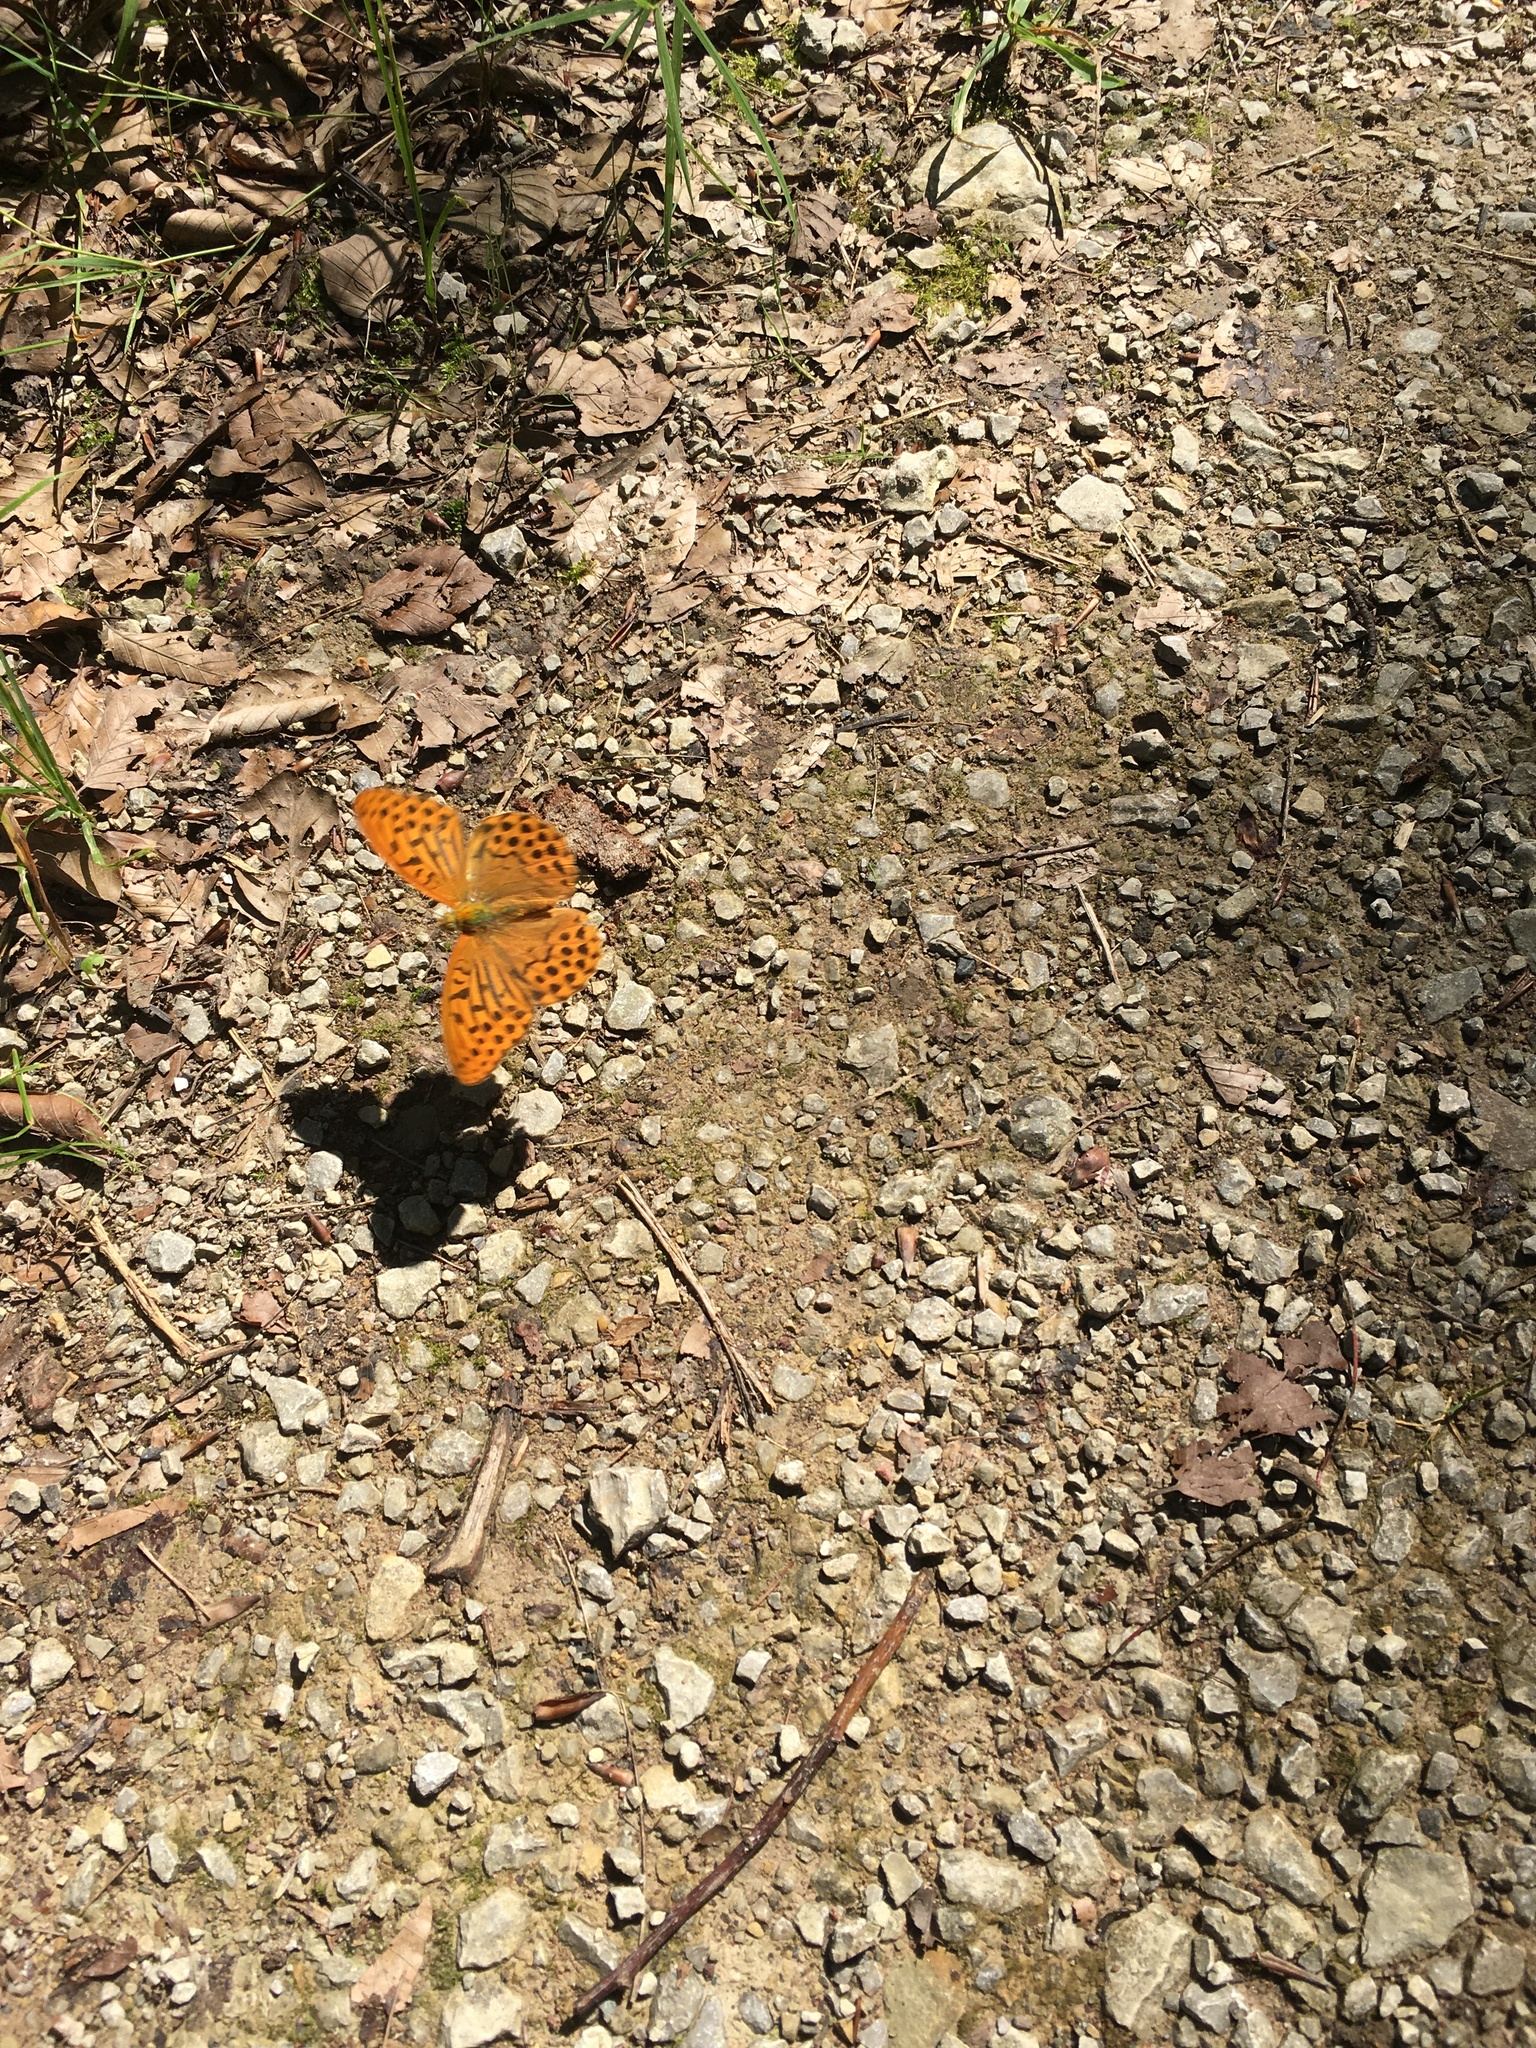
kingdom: Animalia
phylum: Arthropoda
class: Insecta
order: Lepidoptera
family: Nymphalidae
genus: Argynnis
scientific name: Argynnis paphia
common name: Silver-washed fritillary
